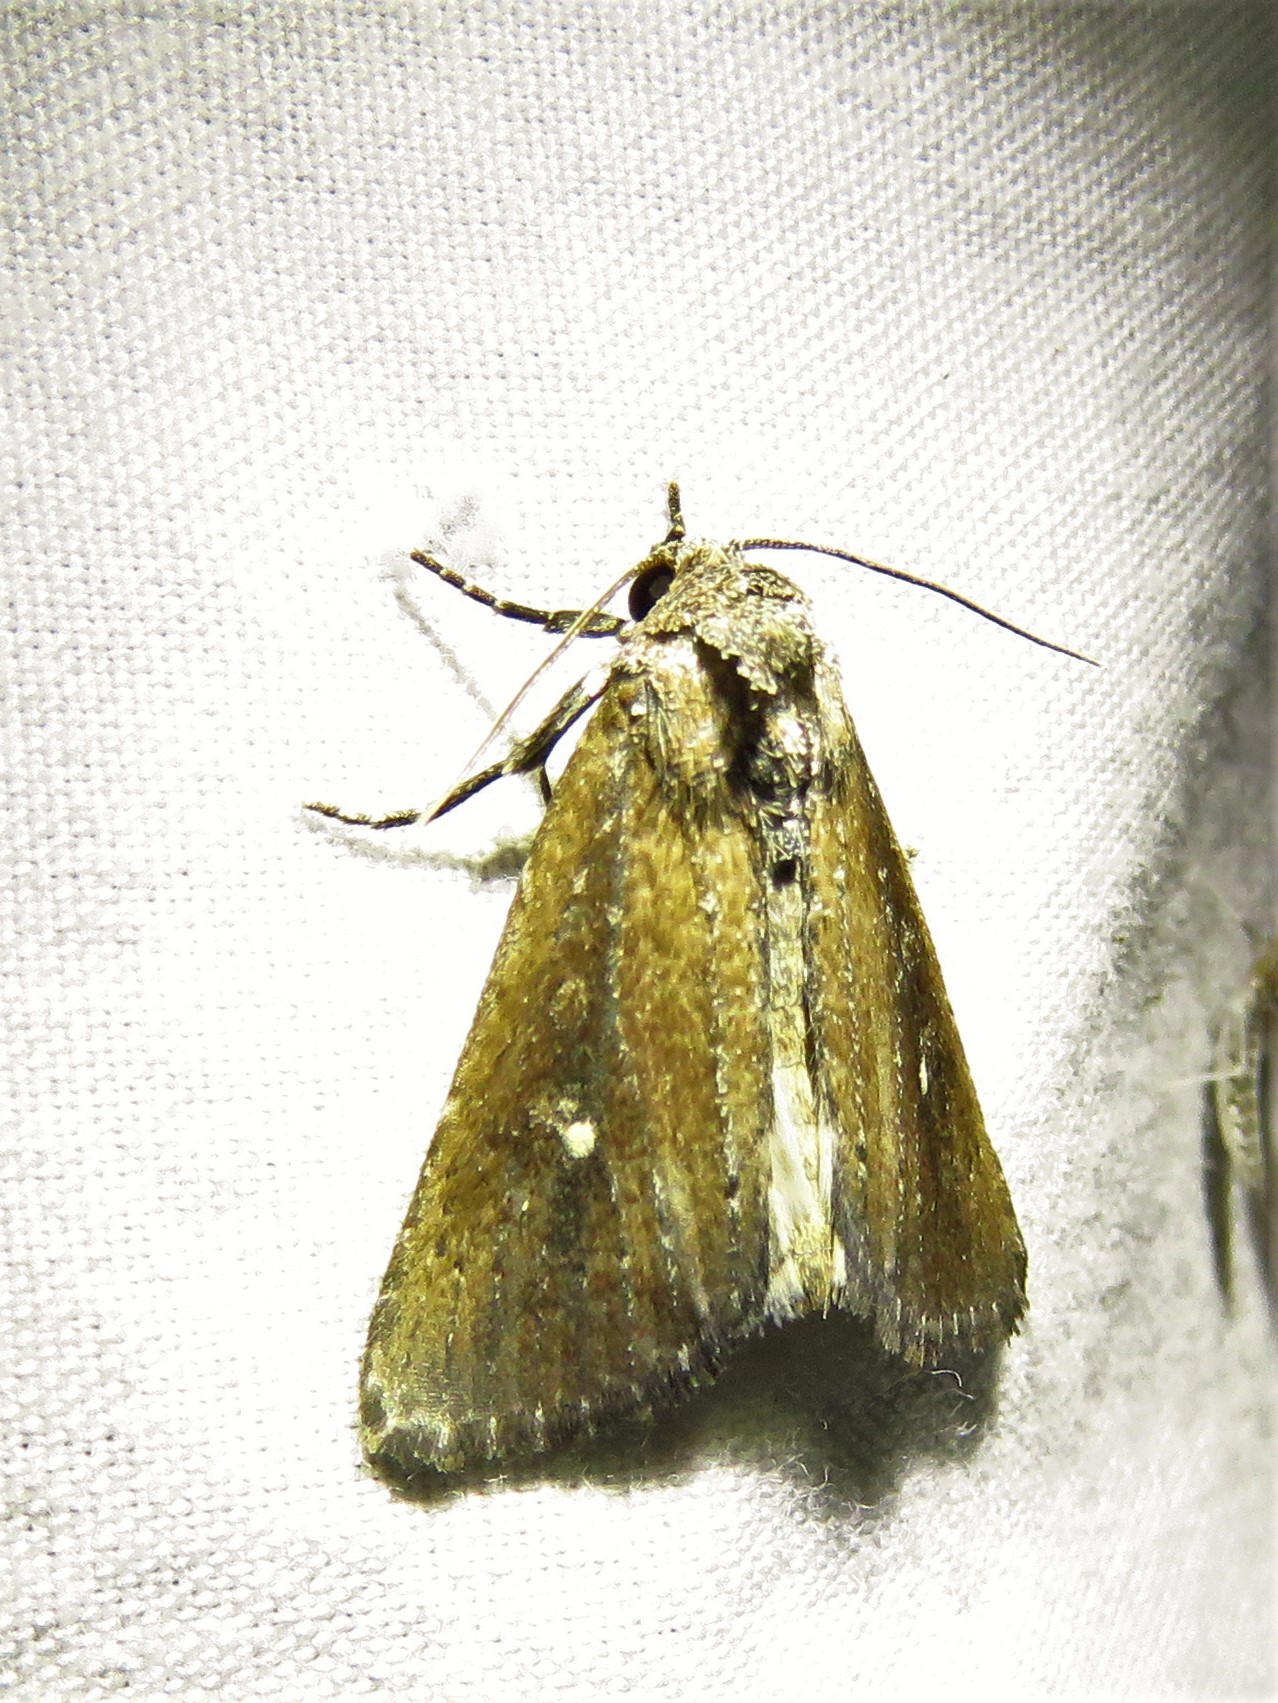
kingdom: Animalia
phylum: Arthropoda
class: Insecta
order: Lepidoptera
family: Noctuidae
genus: Condica
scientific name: Condica videns
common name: White-dotted groundling
